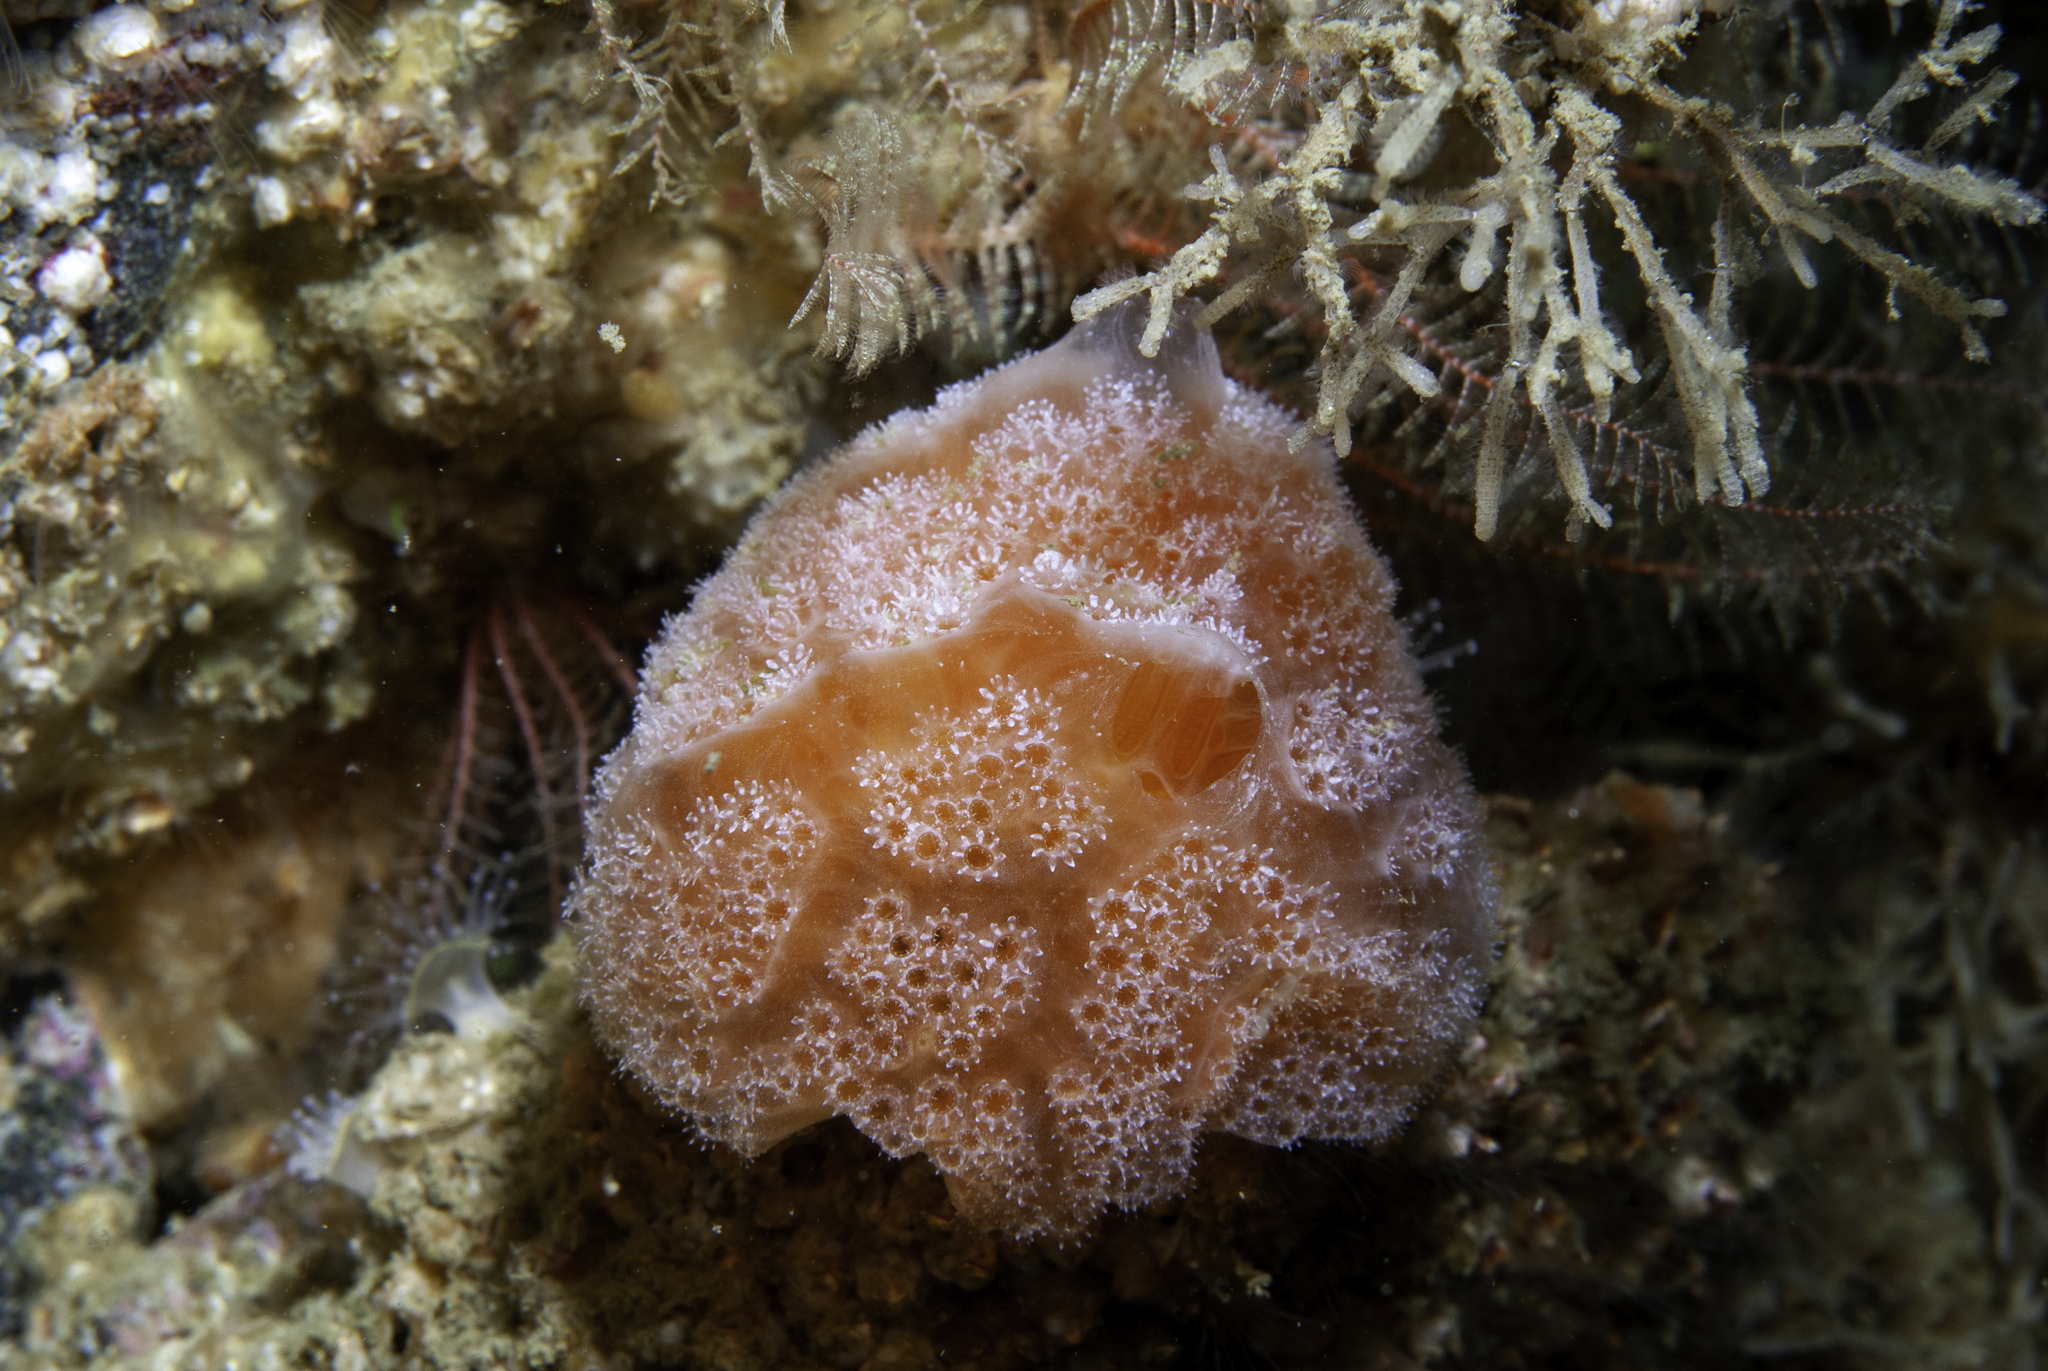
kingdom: Animalia
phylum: Chordata
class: Ascidiacea
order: Aplousobranchia
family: Polyclinidae
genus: Aplidium
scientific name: Aplidium elegans
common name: Sea-strawberry
